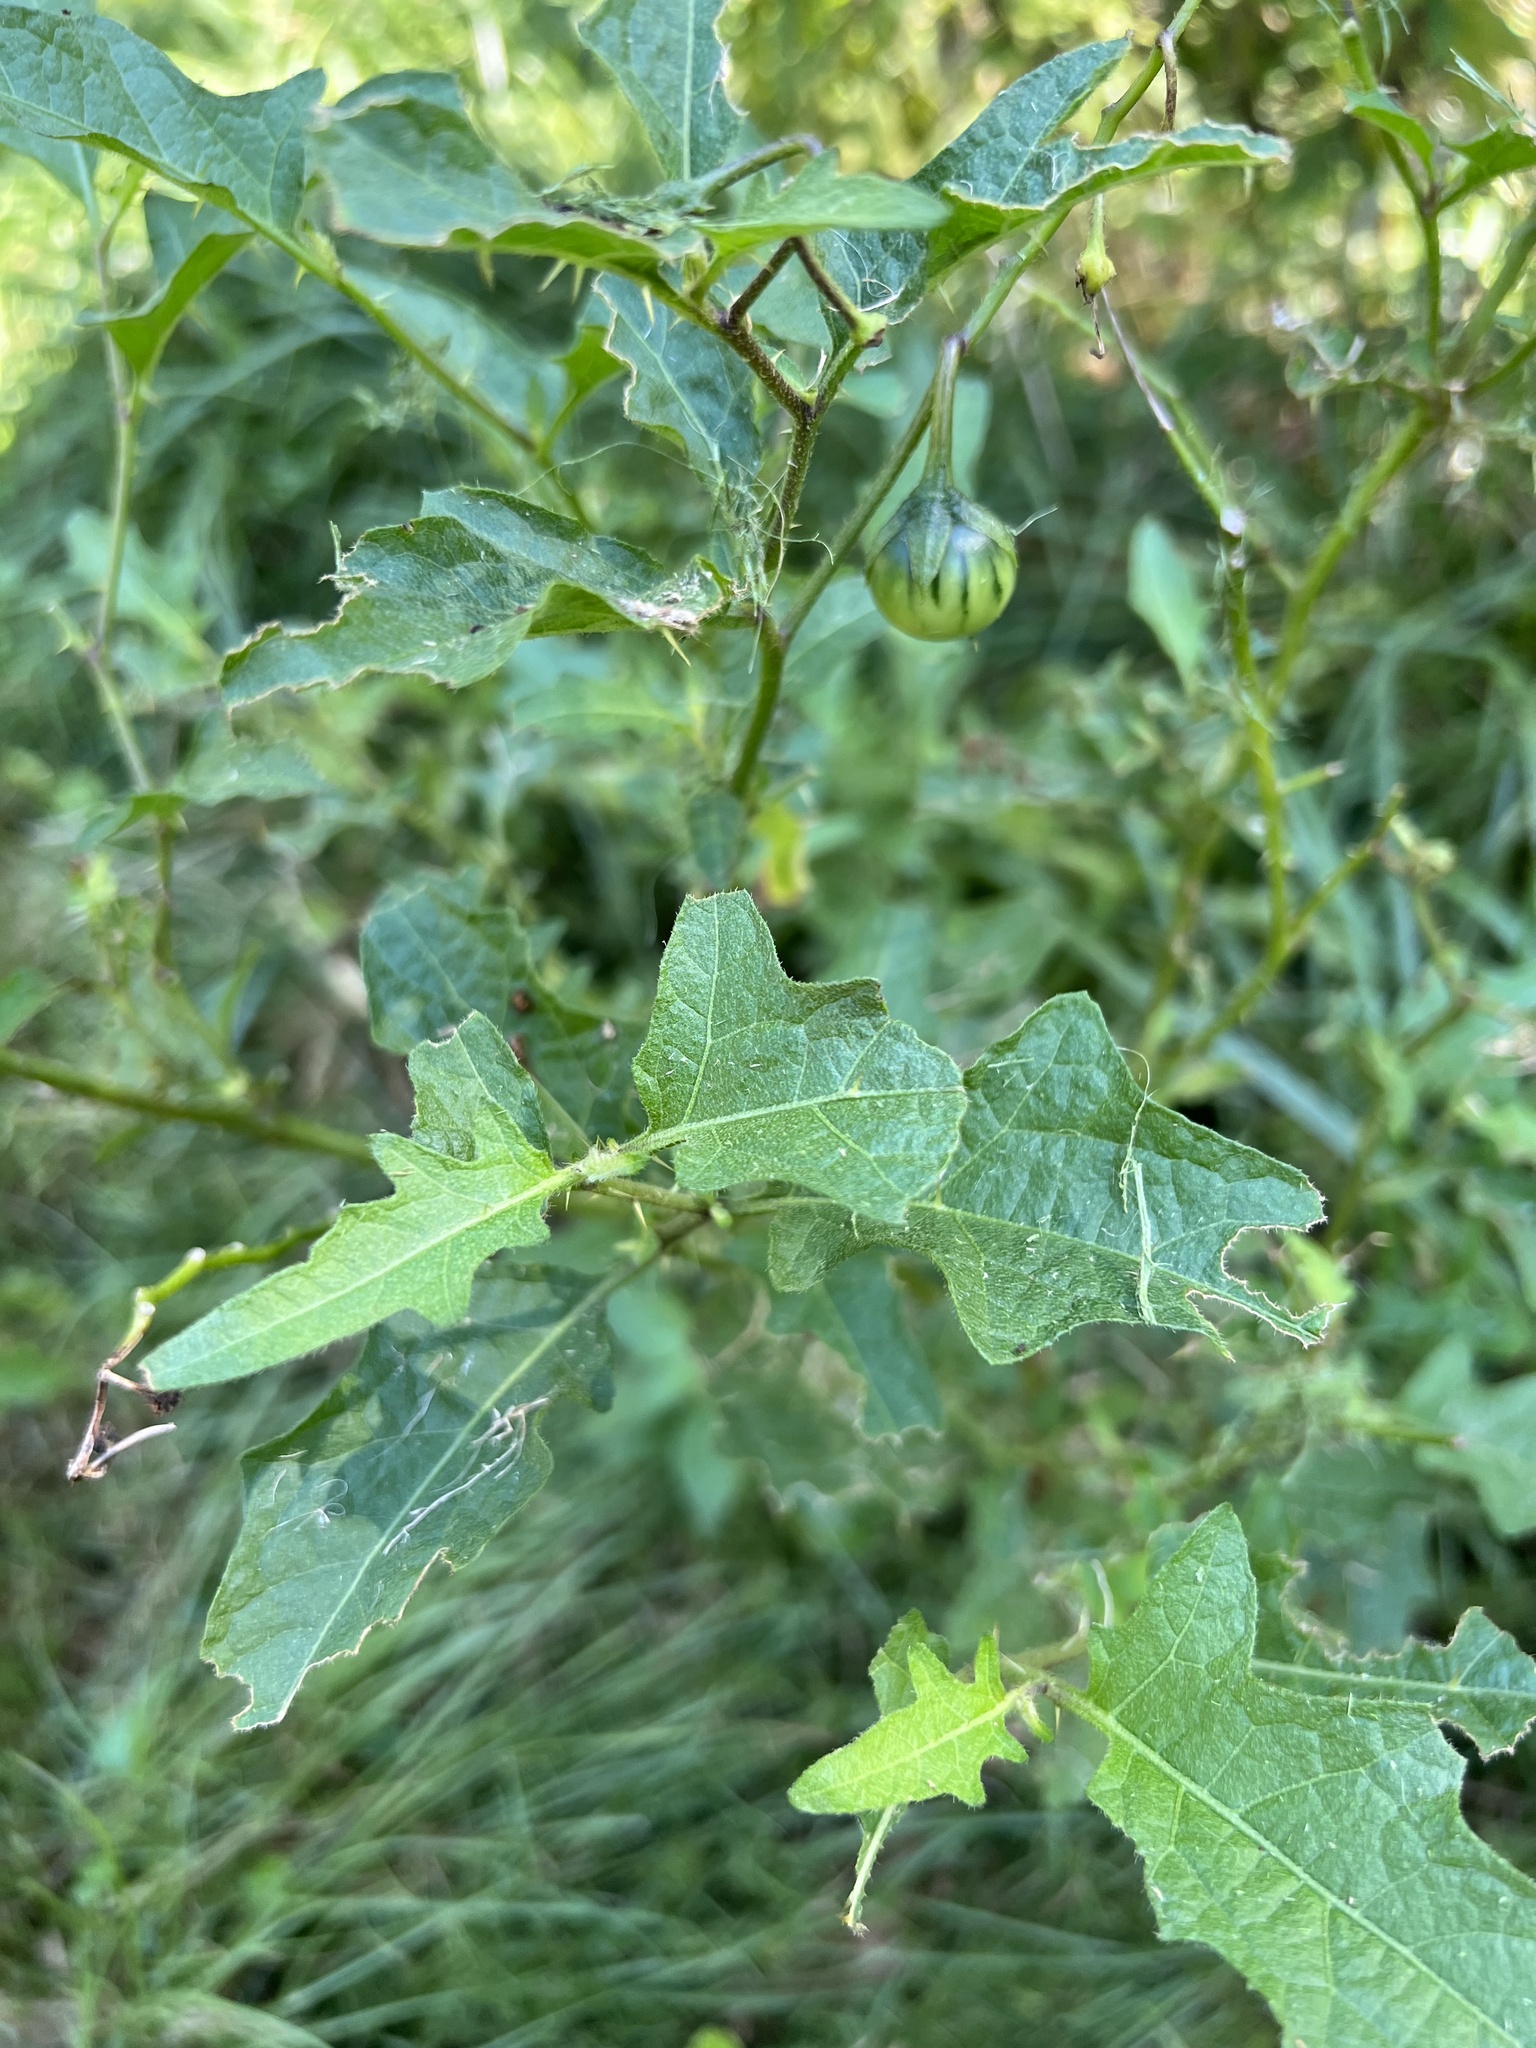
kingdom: Plantae
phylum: Tracheophyta
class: Magnoliopsida
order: Solanales
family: Solanaceae
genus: Solanum
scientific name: Solanum carolinense
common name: Horse-nettle
